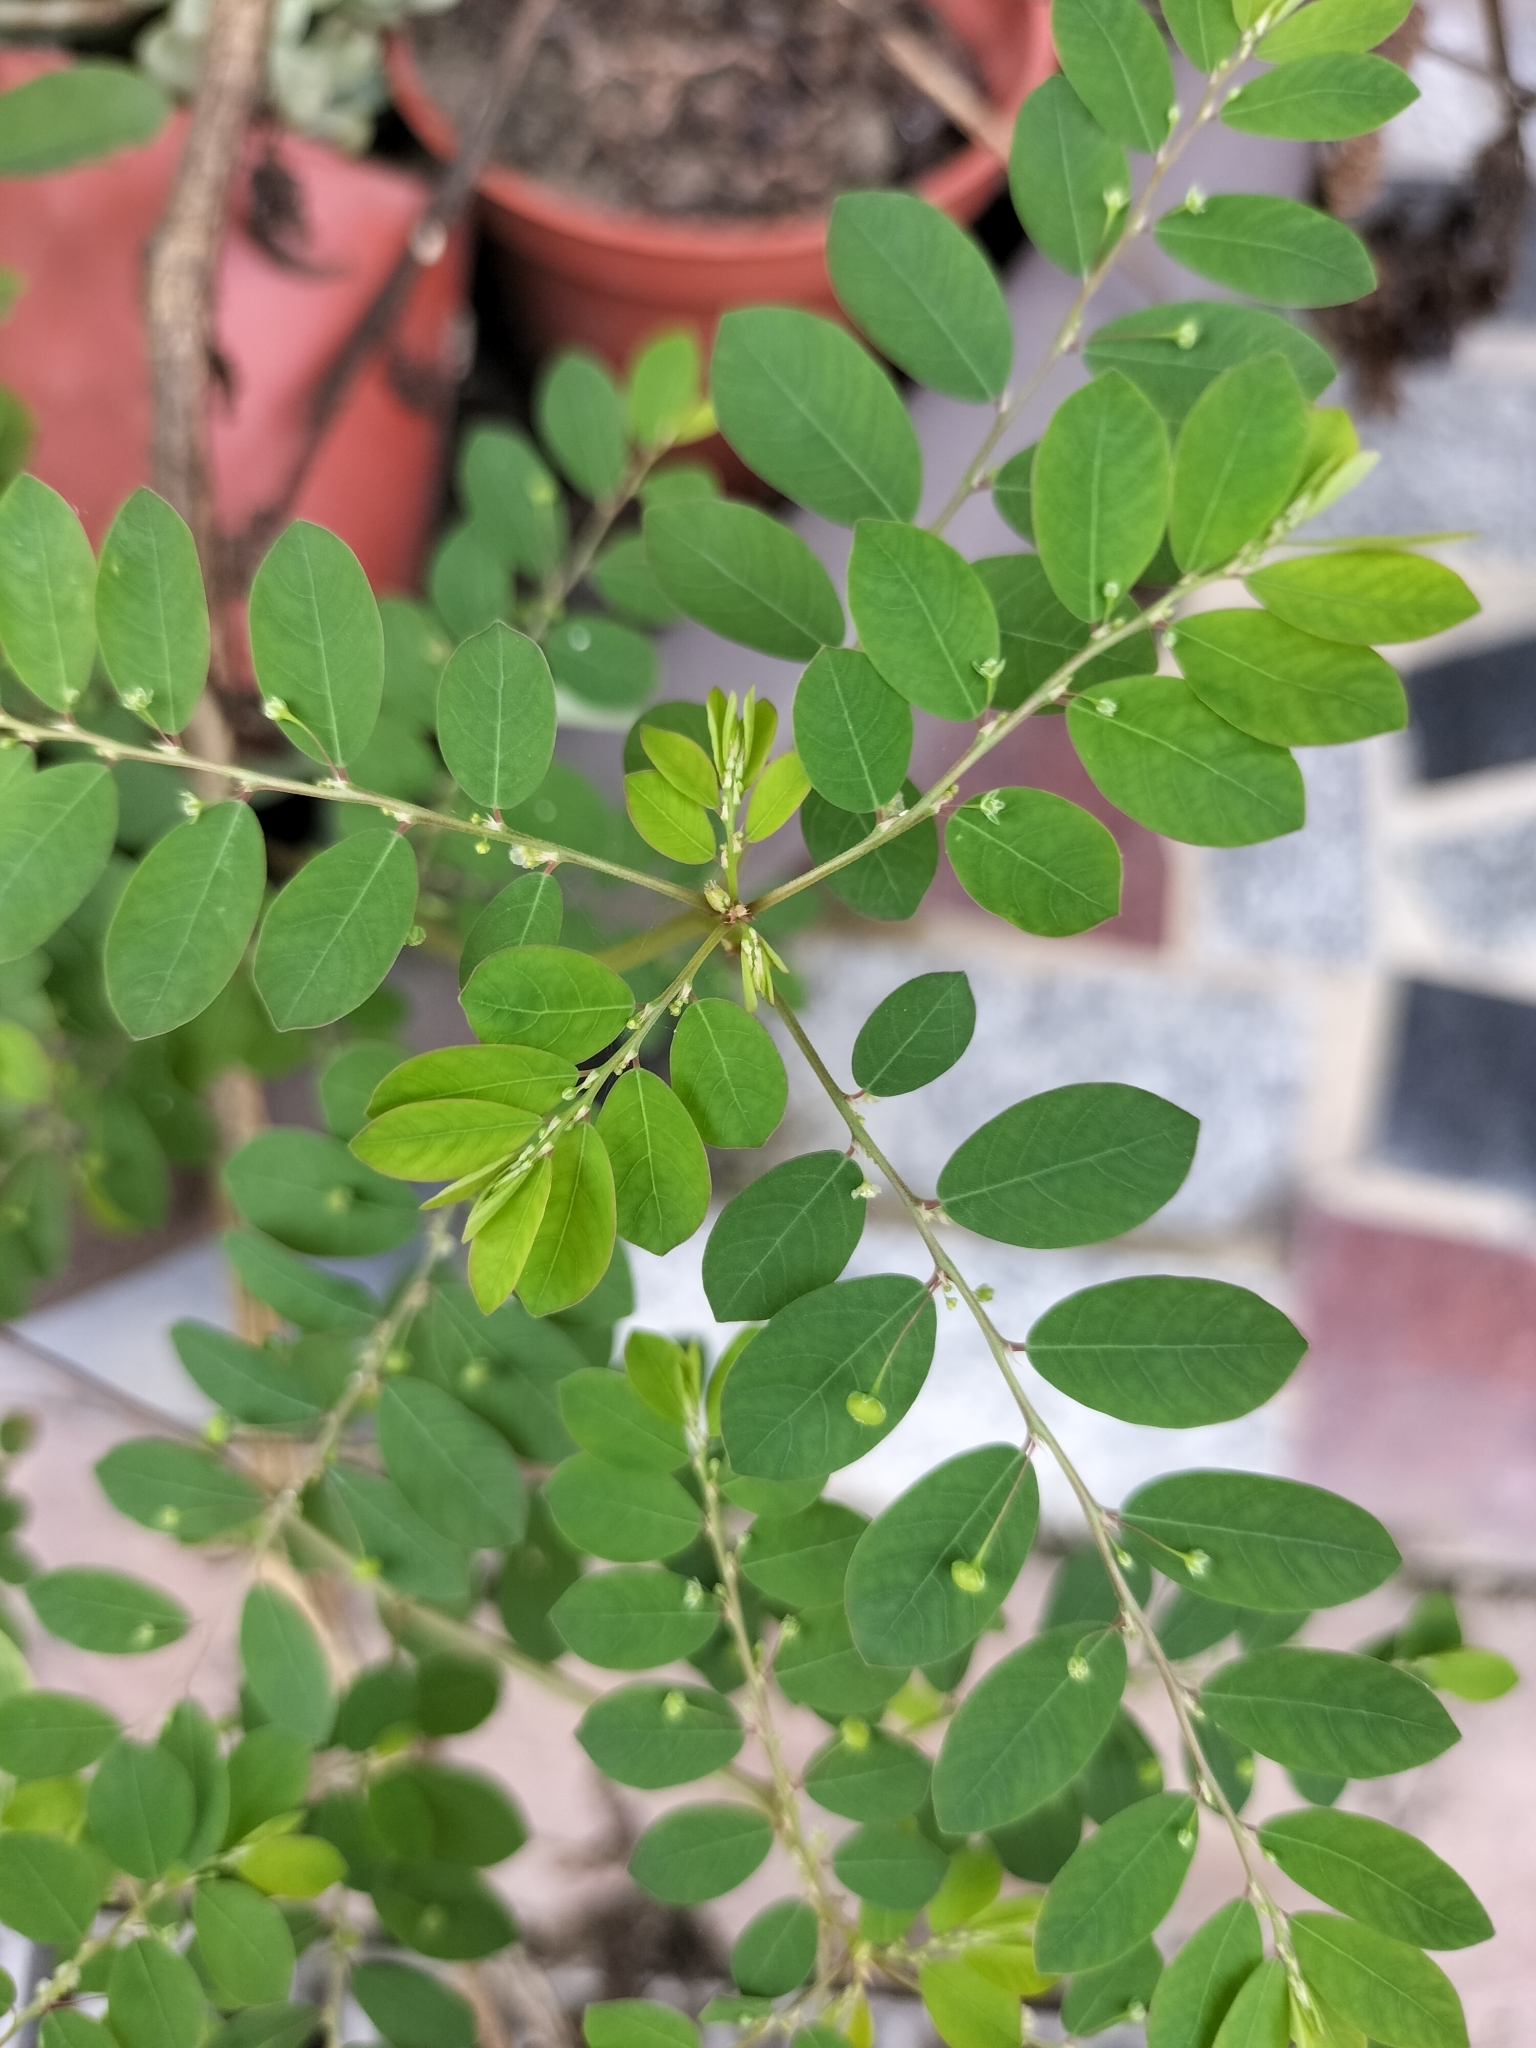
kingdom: Plantae
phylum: Tracheophyta
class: Magnoliopsida
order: Malpighiales
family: Phyllanthaceae
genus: Phyllanthus
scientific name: Phyllanthus tenellus
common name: Mascarene island leaf-flower
